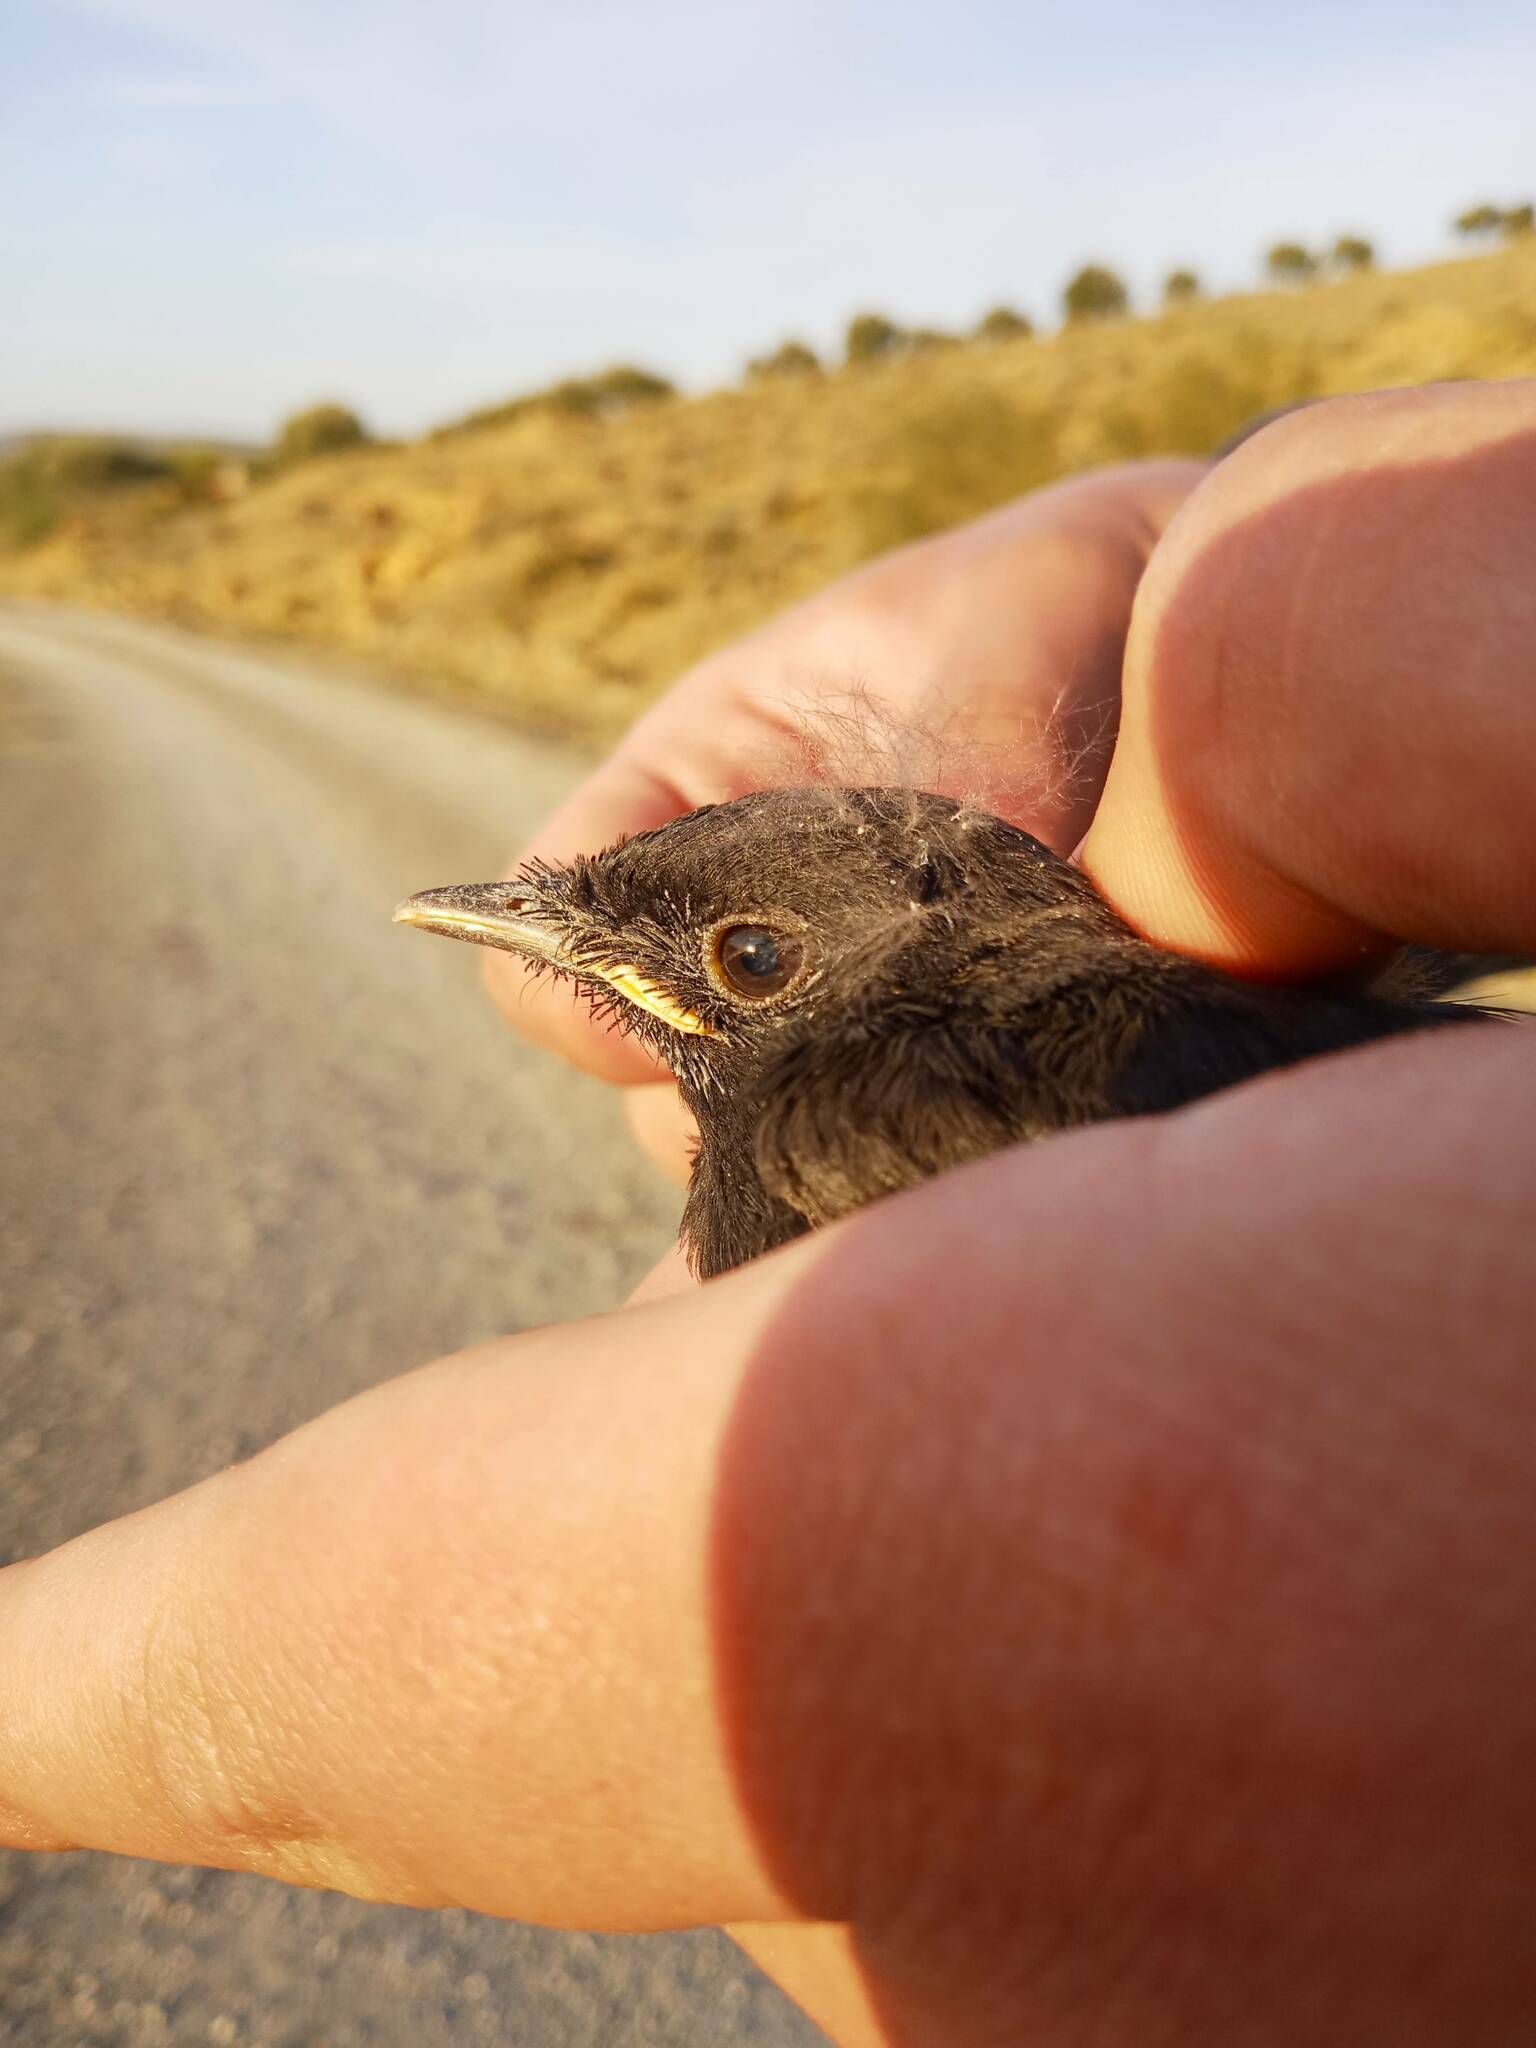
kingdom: Animalia
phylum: Chordata
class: Aves
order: Passeriformes
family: Muscicapidae
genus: Oenanthe
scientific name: Oenanthe leucura
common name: Black wheatear
